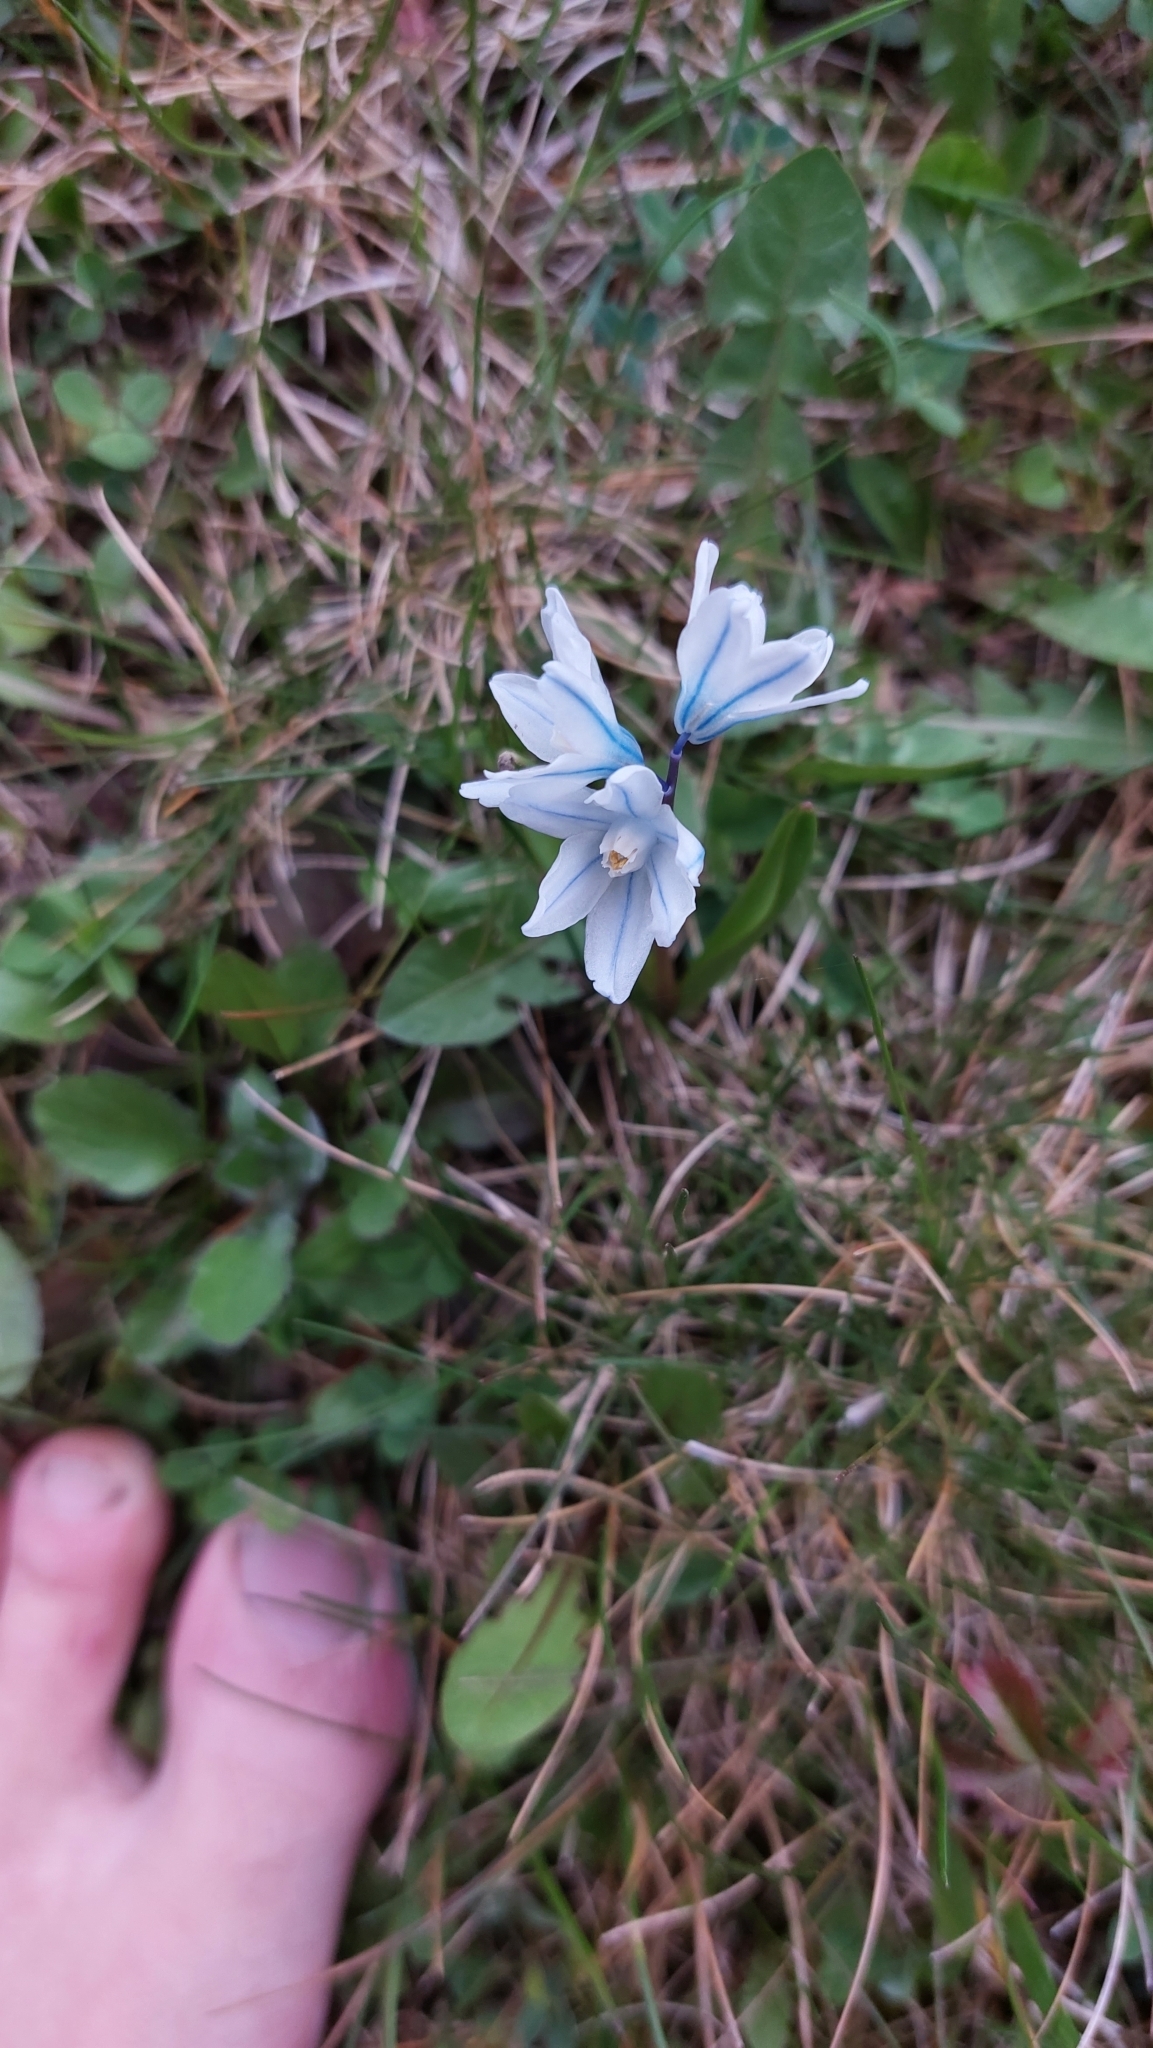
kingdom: Plantae
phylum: Tracheophyta
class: Liliopsida
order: Asparagales
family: Asparagaceae
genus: Puschkinia
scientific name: Puschkinia scilloides
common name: Striped squill
